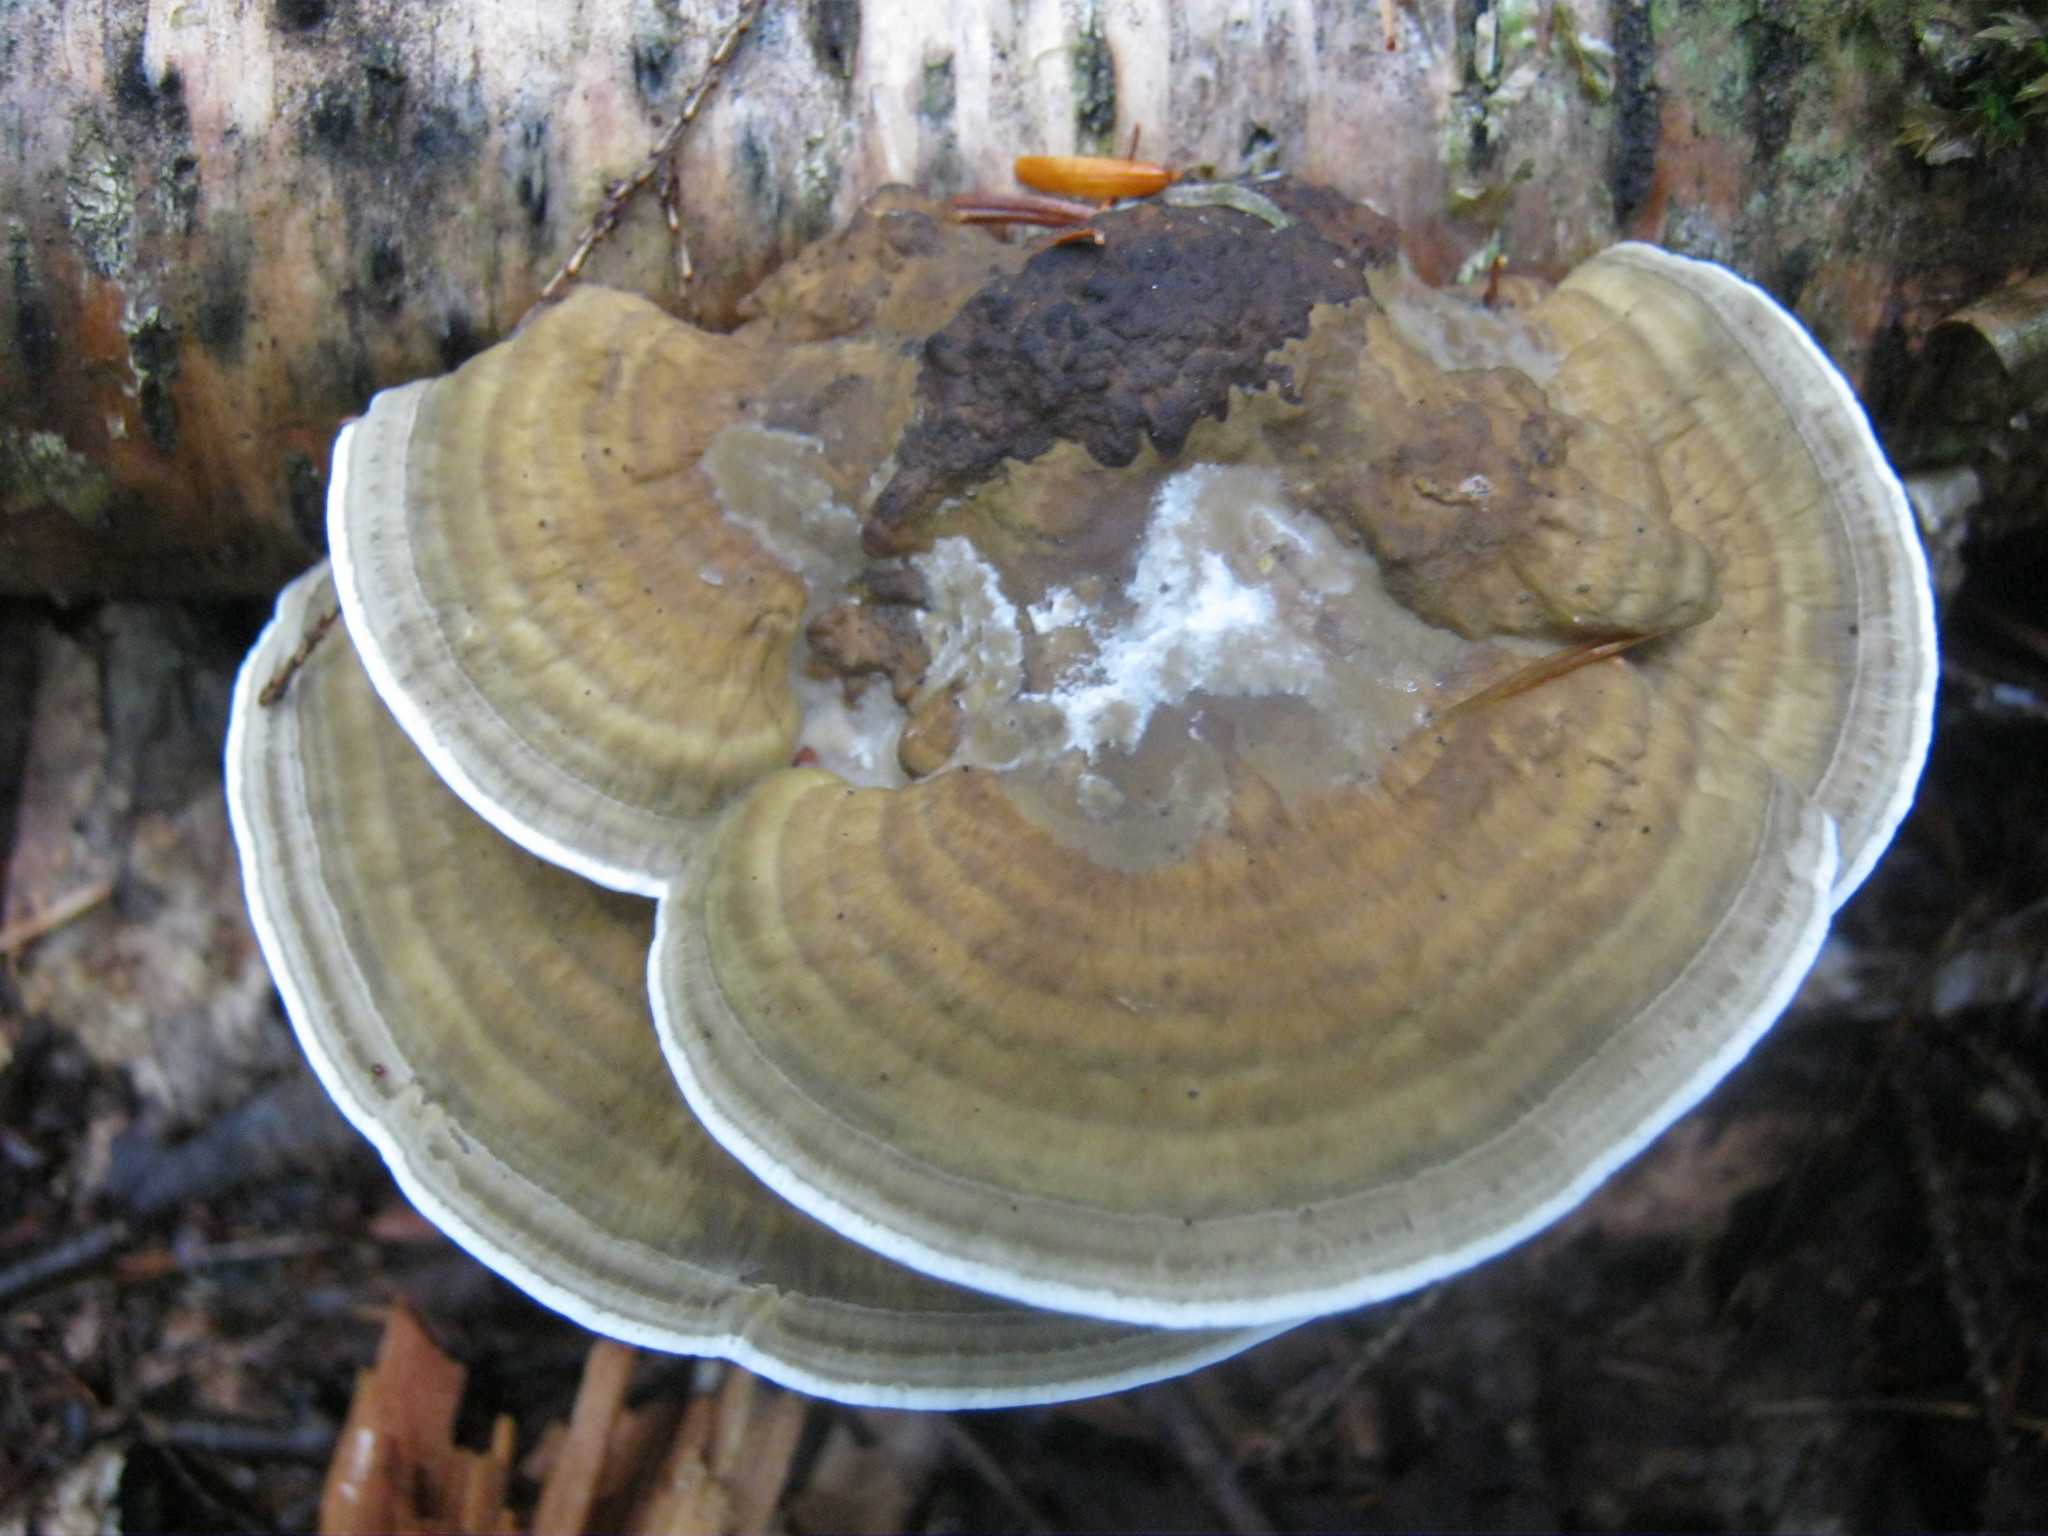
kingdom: Fungi
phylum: Basidiomycota
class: Agaricomycetes
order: Polyporales
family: Polyporaceae
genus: Daedaleopsis
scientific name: Daedaleopsis confragosa
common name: Blushing bracket
